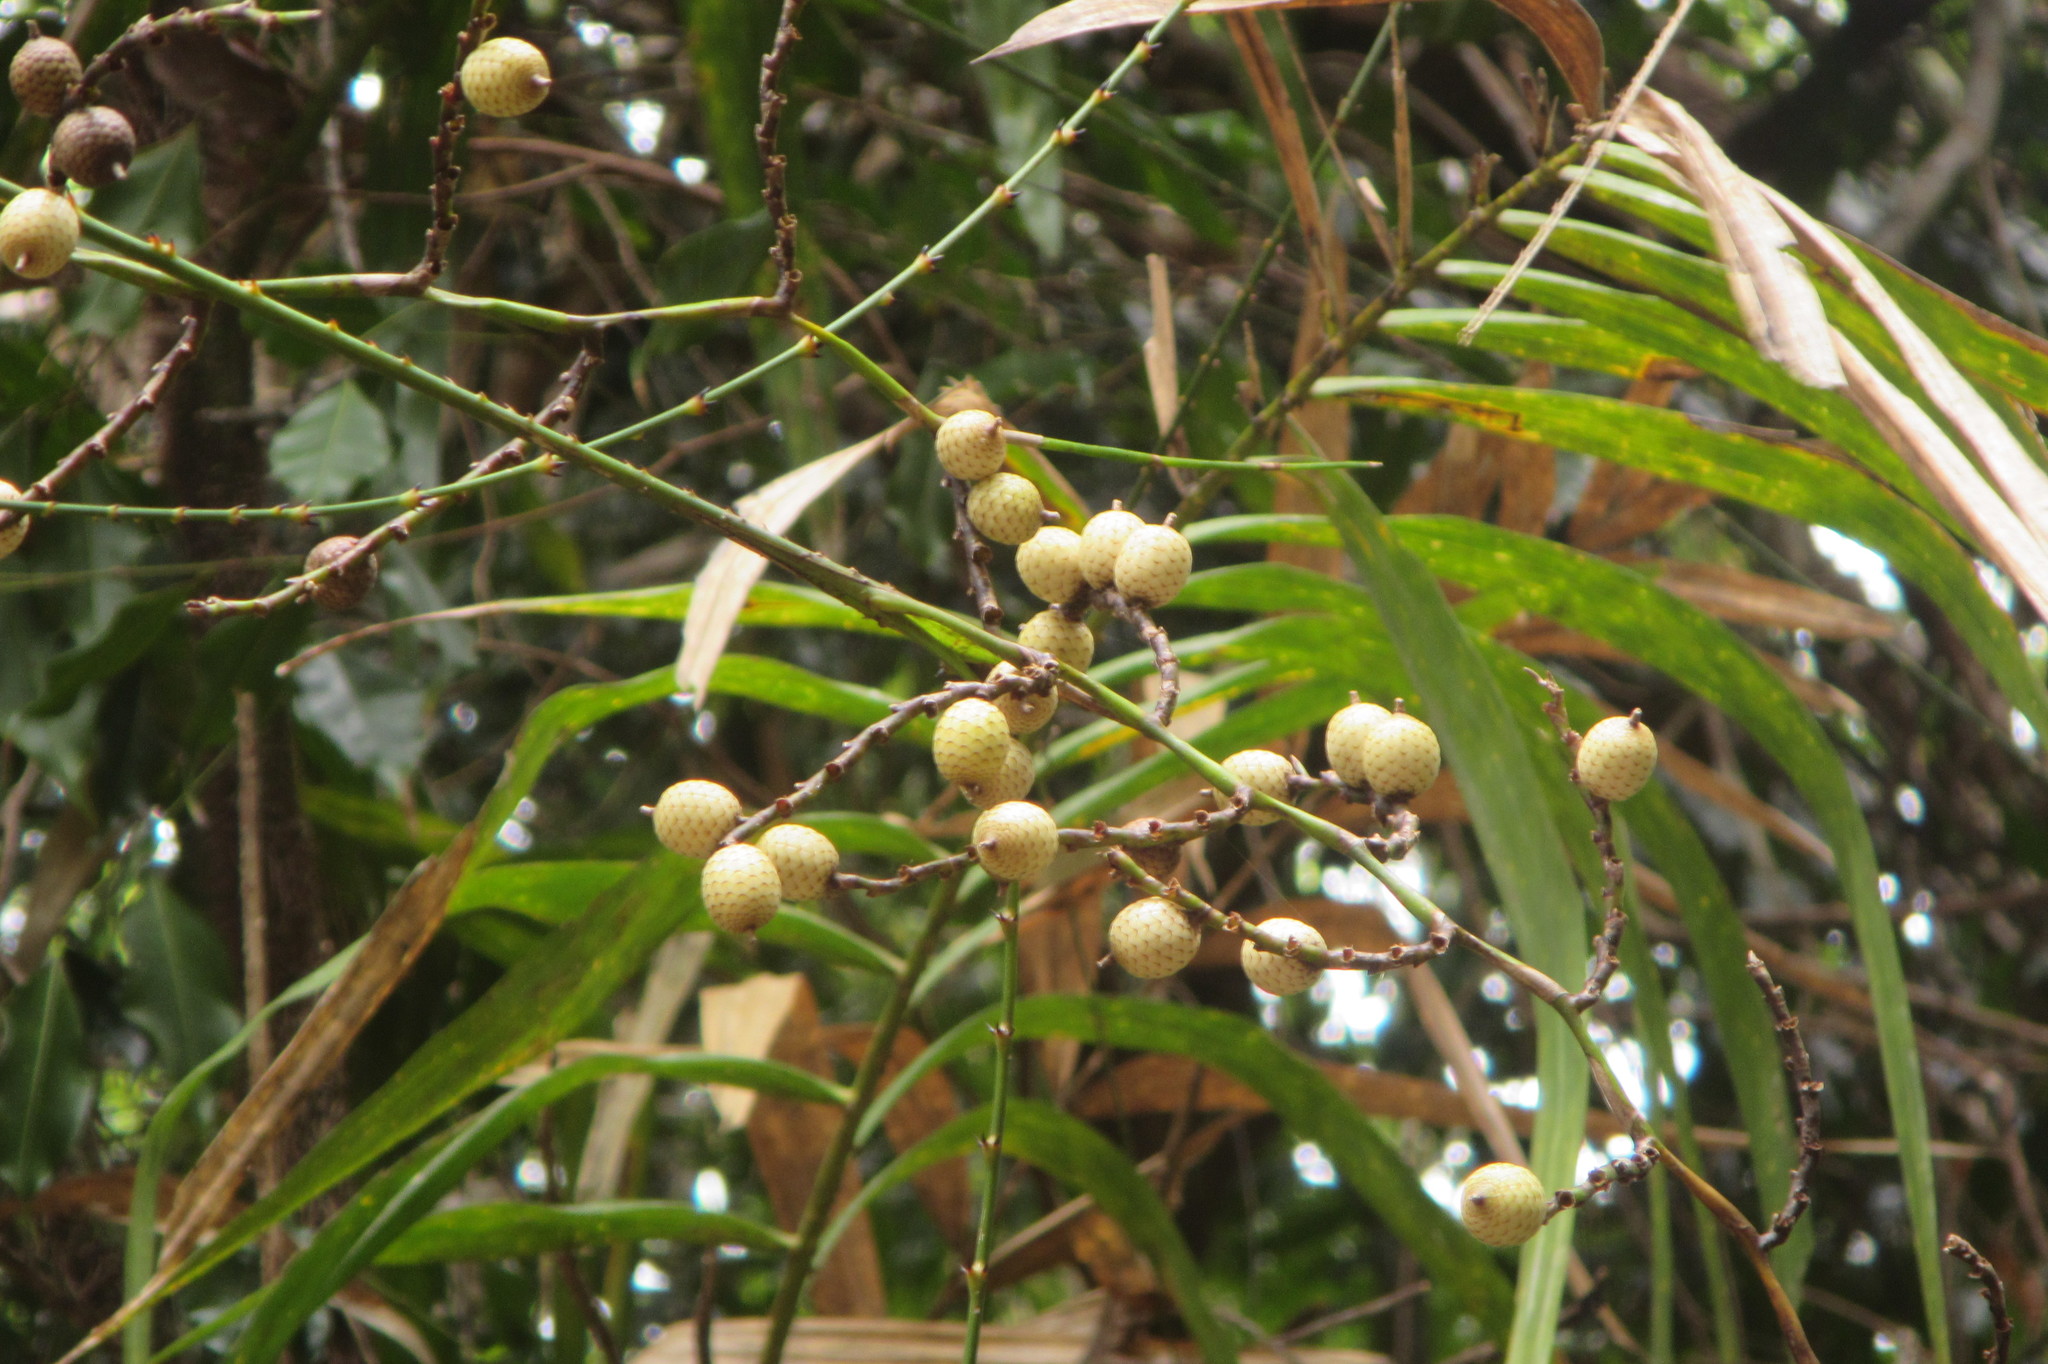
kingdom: Plantae
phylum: Tracheophyta
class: Liliopsida
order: Arecales
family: Arecaceae
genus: Calamus
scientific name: Calamus australis
